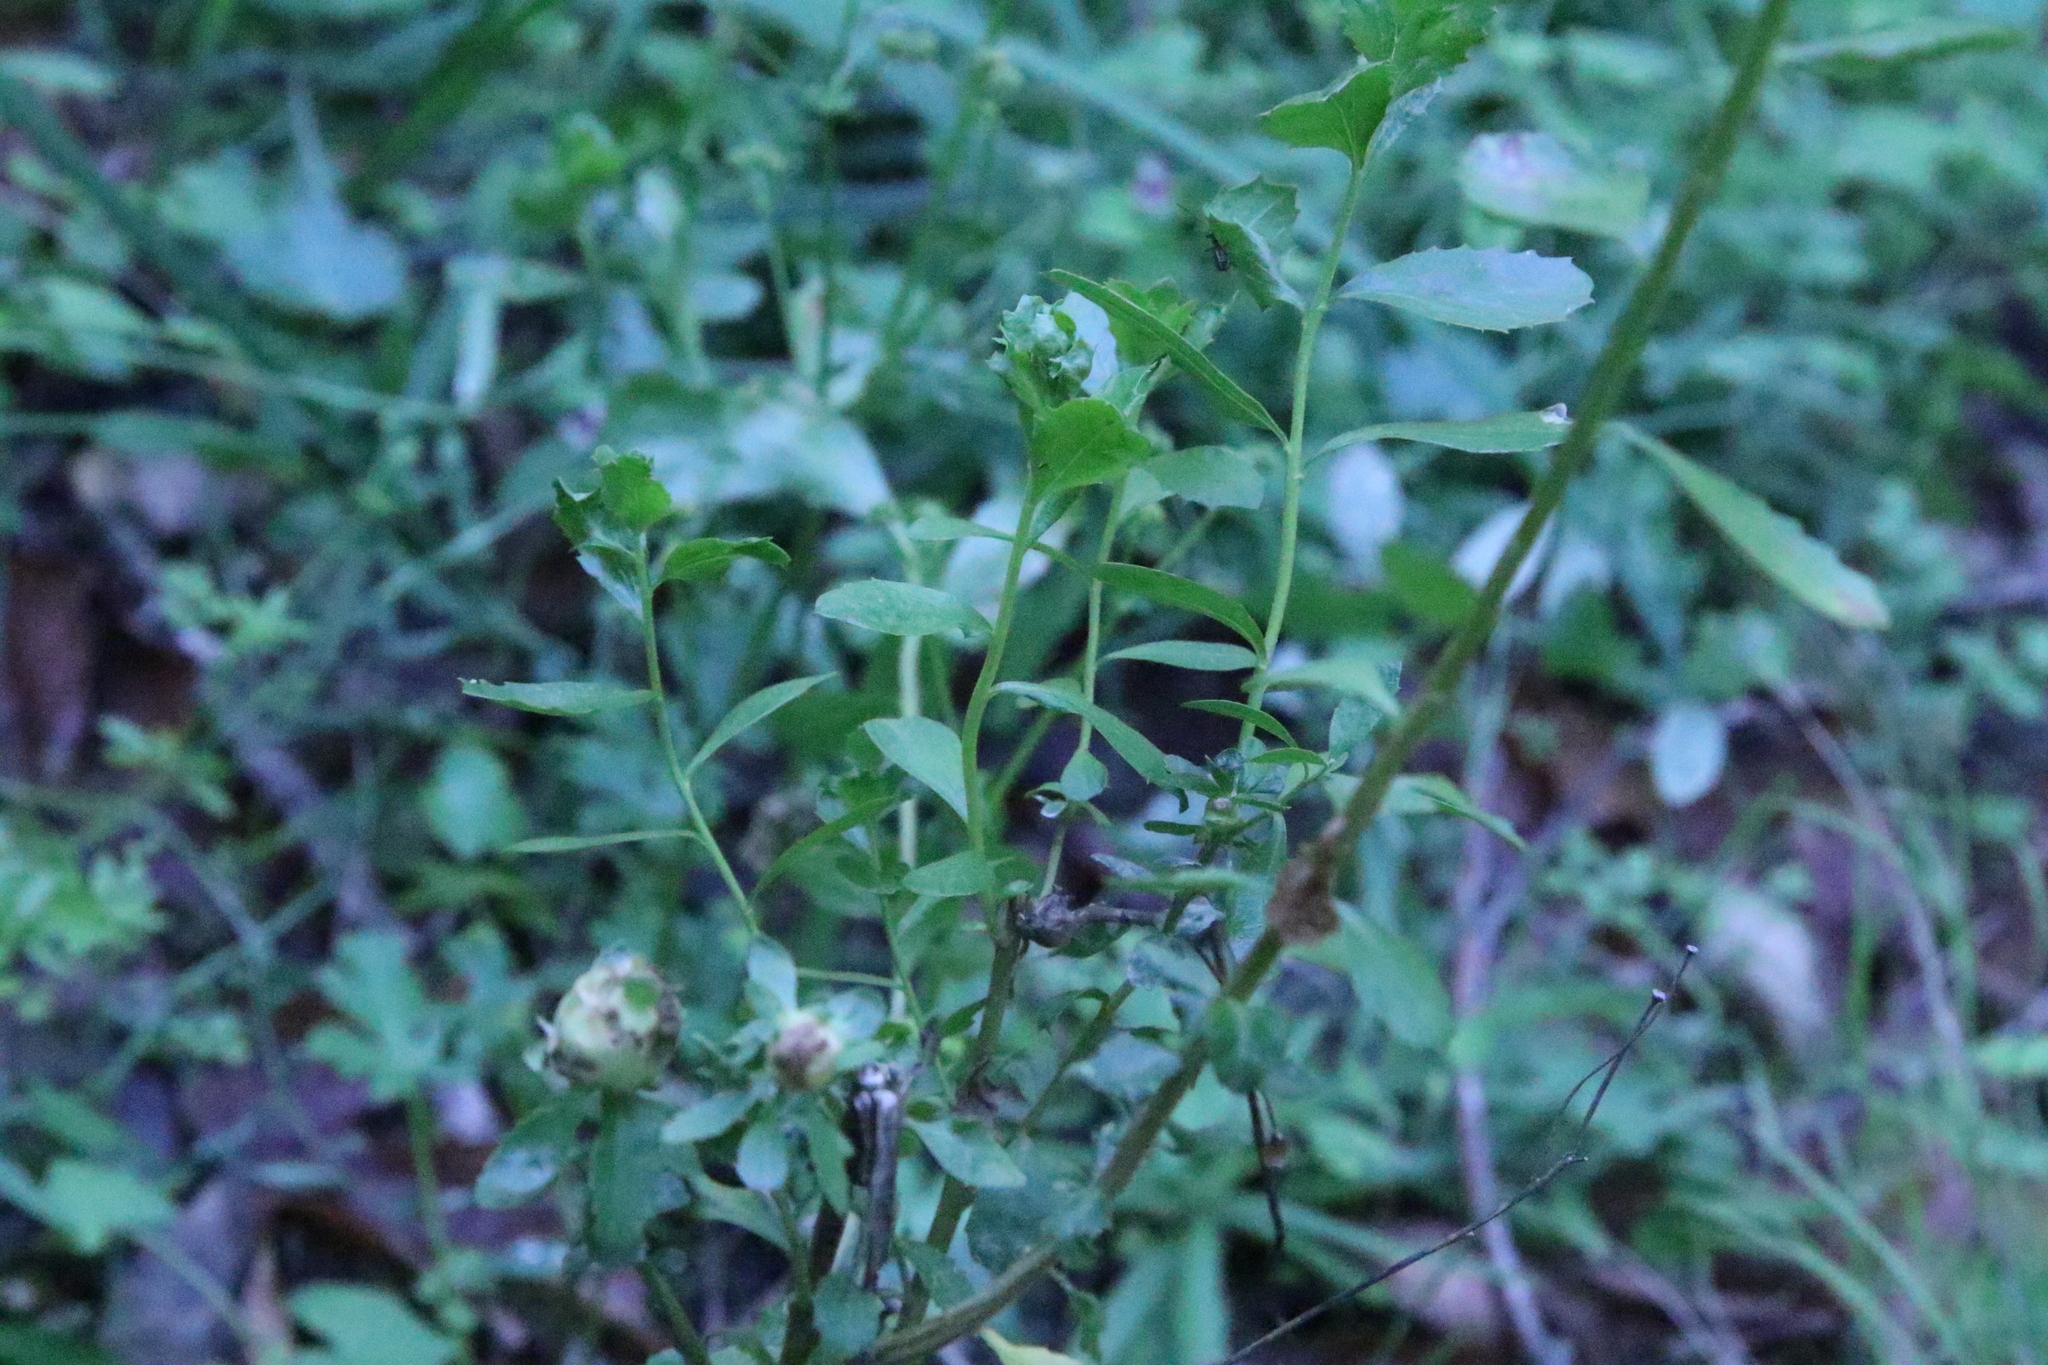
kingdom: Plantae
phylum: Tracheophyta
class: Magnoliopsida
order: Asterales
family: Asteraceae
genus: Baccharis
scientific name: Baccharis pilularis
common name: Coyotebrush
